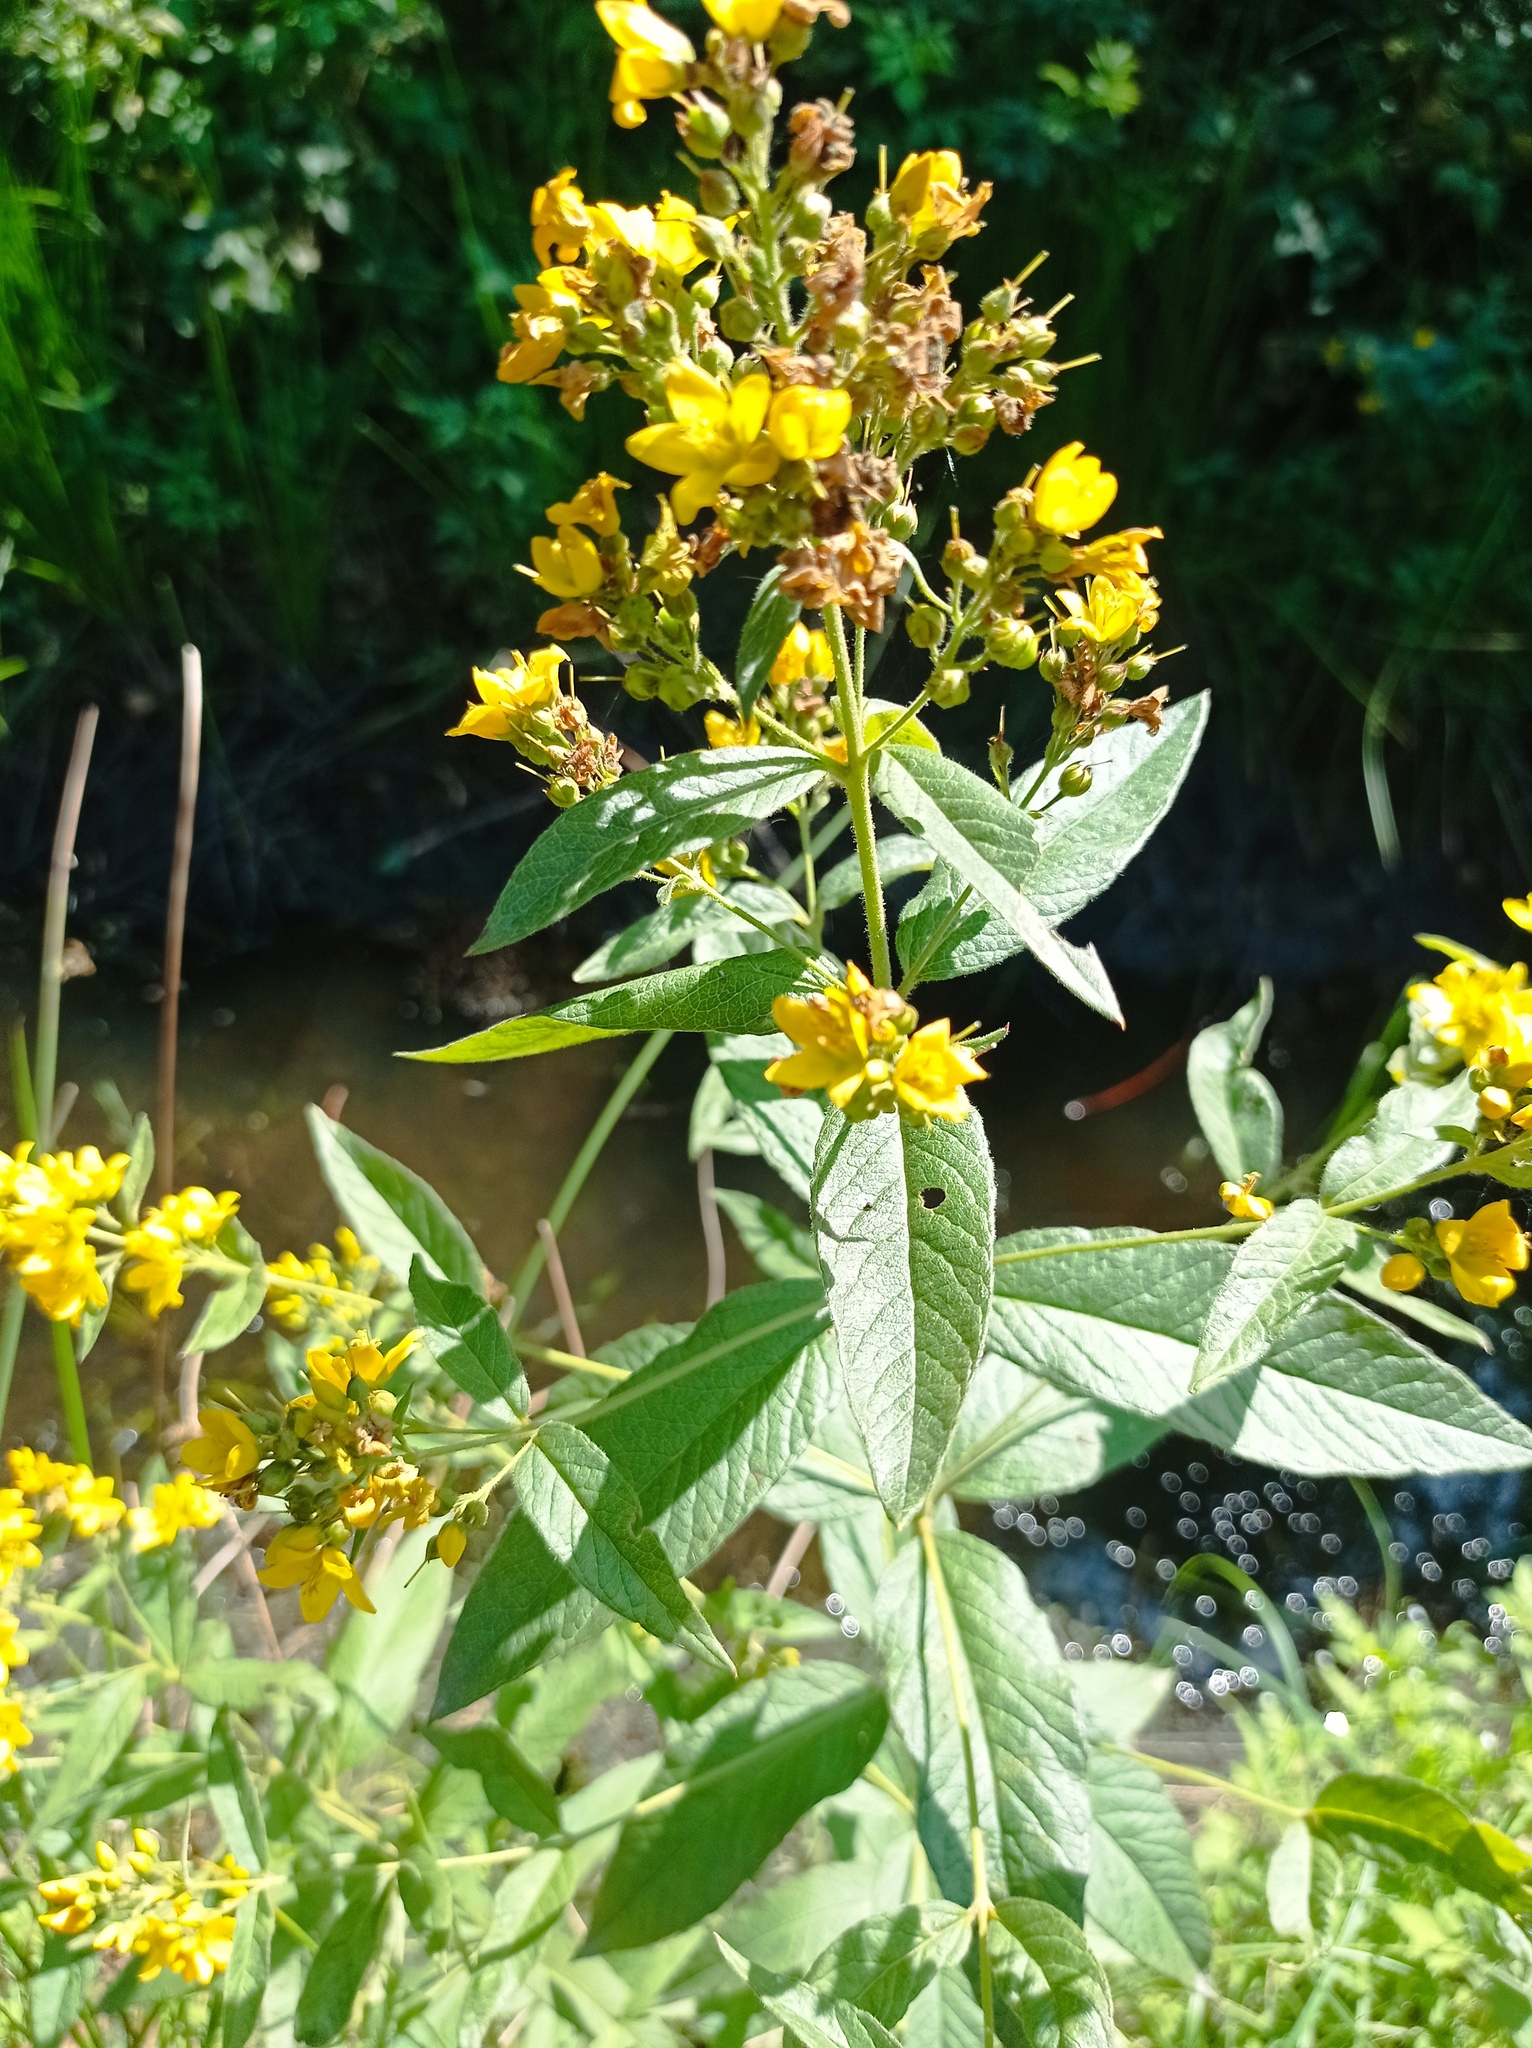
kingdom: Plantae
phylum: Tracheophyta
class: Magnoliopsida
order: Ericales
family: Primulaceae
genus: Lysimachia
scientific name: Lysimachia vulgaris
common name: Yellow loosestrife
